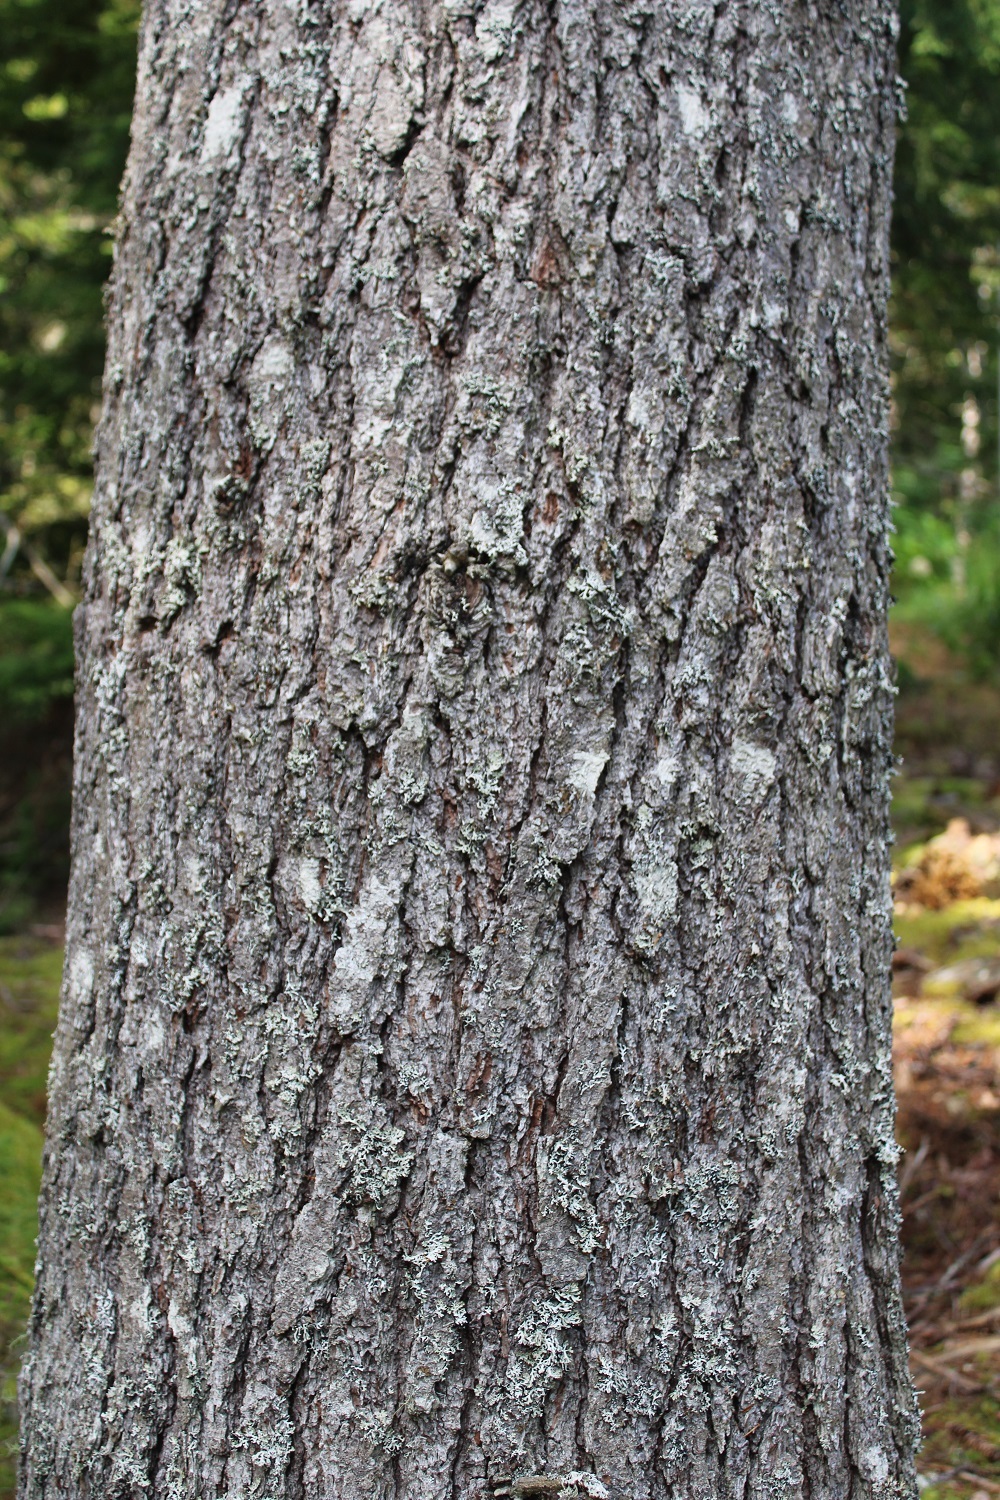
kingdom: Plantae
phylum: Tracheophyta
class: Pinopsida
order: Pinales
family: Pinaceae
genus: Pinus
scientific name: Pinus strobus
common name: Weymouth pine
